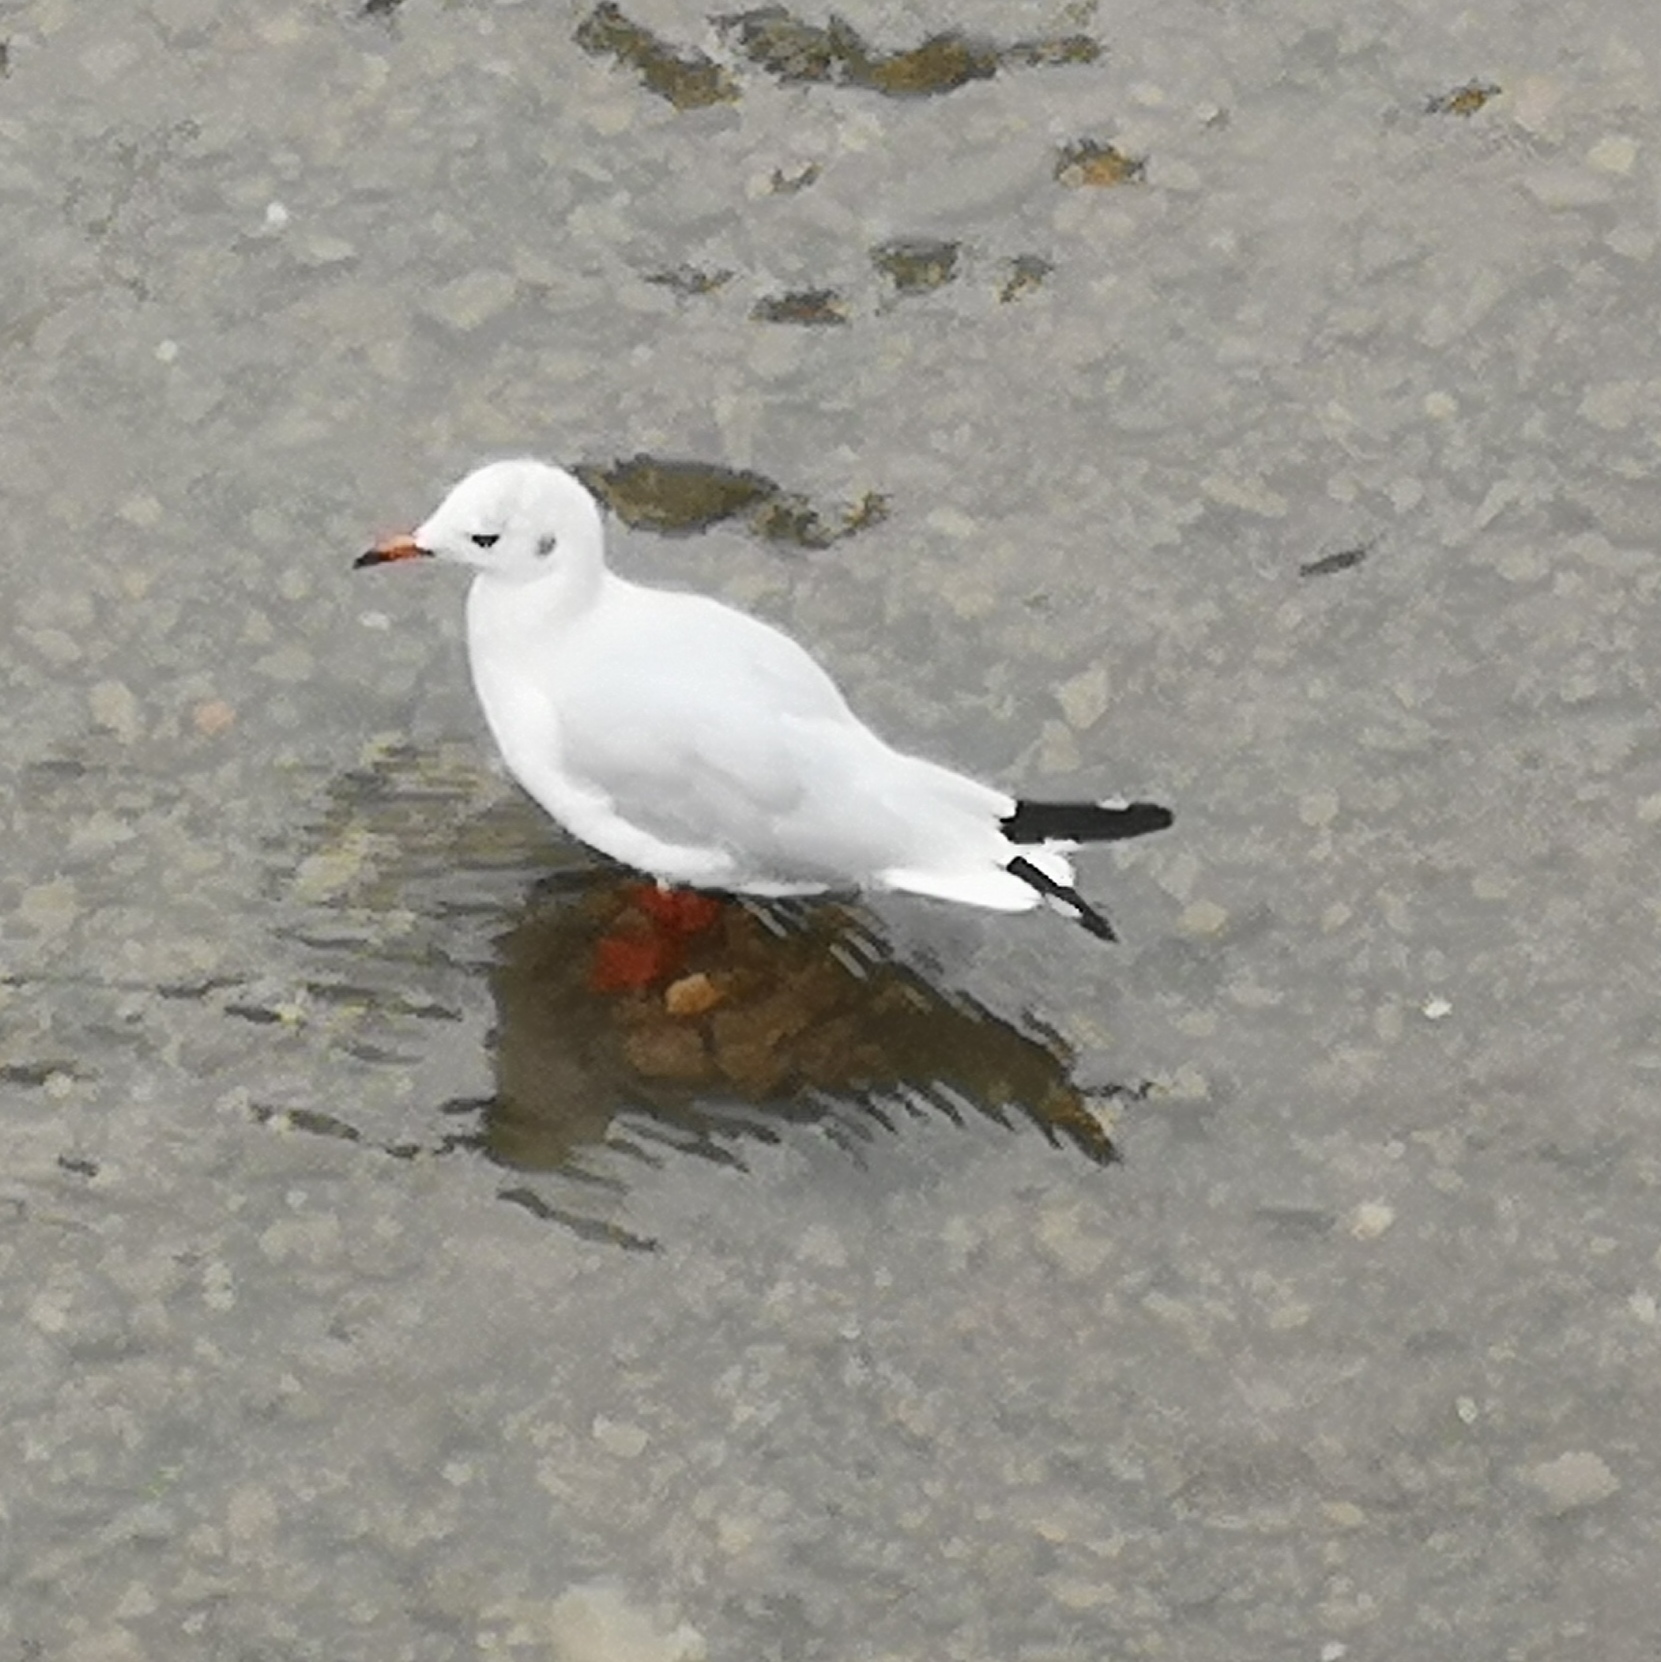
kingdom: Animalia
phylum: Chordata
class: Aves
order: Charadriiformes
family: Laridae
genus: Chroicocephalus
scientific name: Chroicocephalus ridibundus
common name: Black-headed gull
